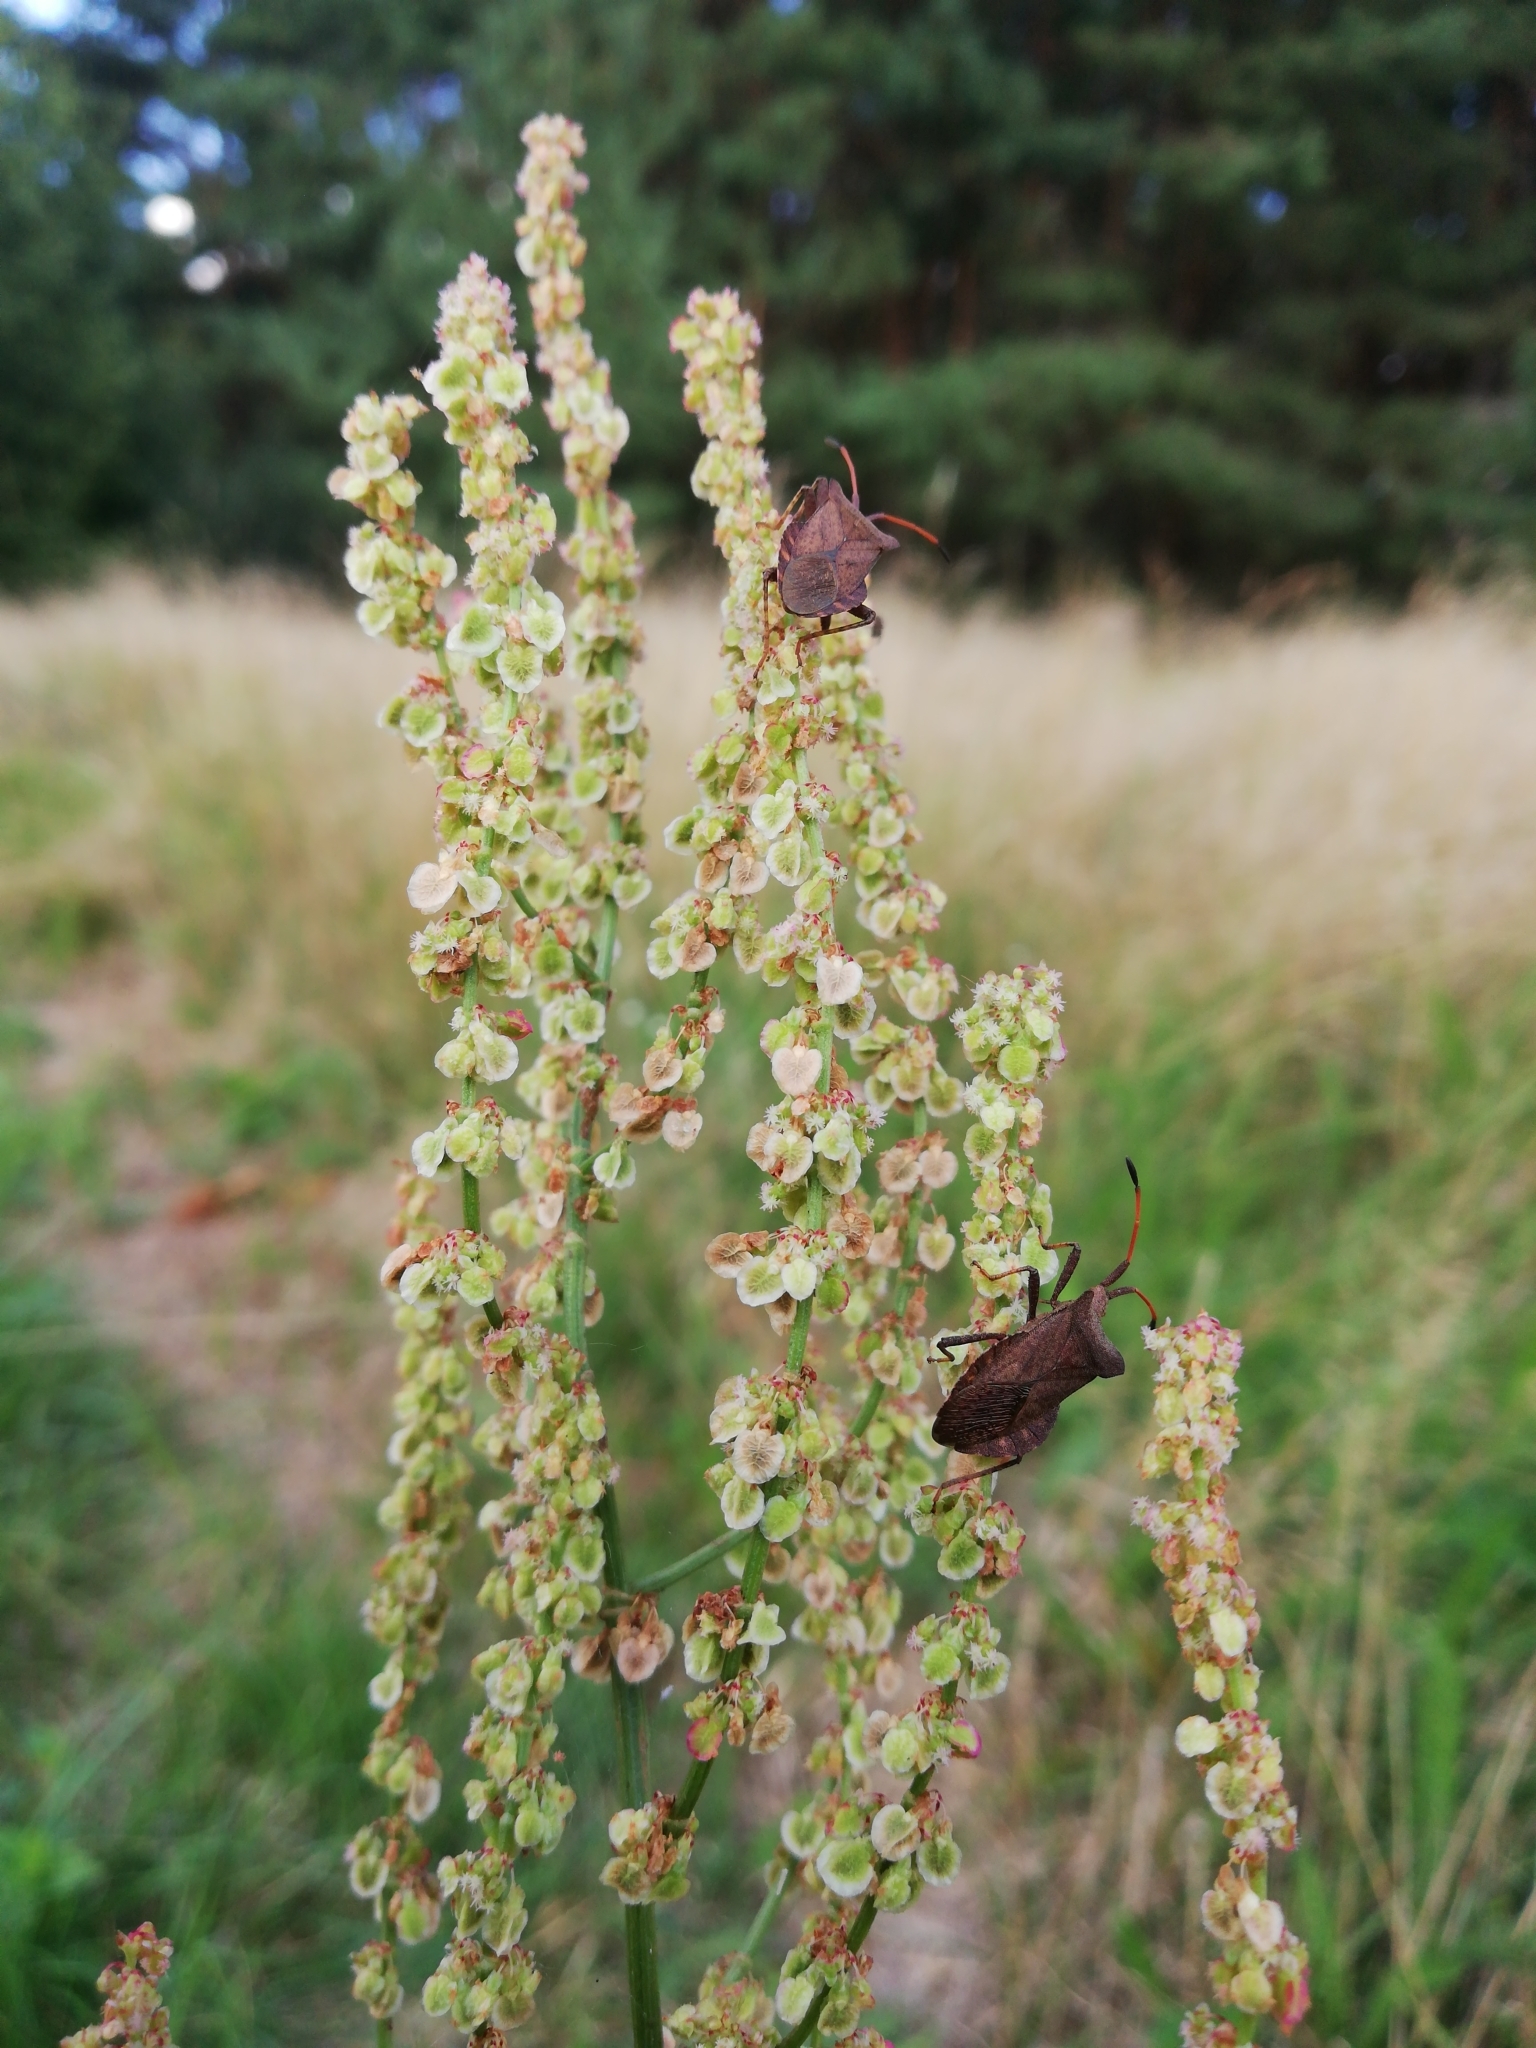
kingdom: Animalia
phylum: Arthropoda
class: Insecta
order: Hemiptera
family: Coreidae
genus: Coreus
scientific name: Coreus marginatus
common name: Dock bug
